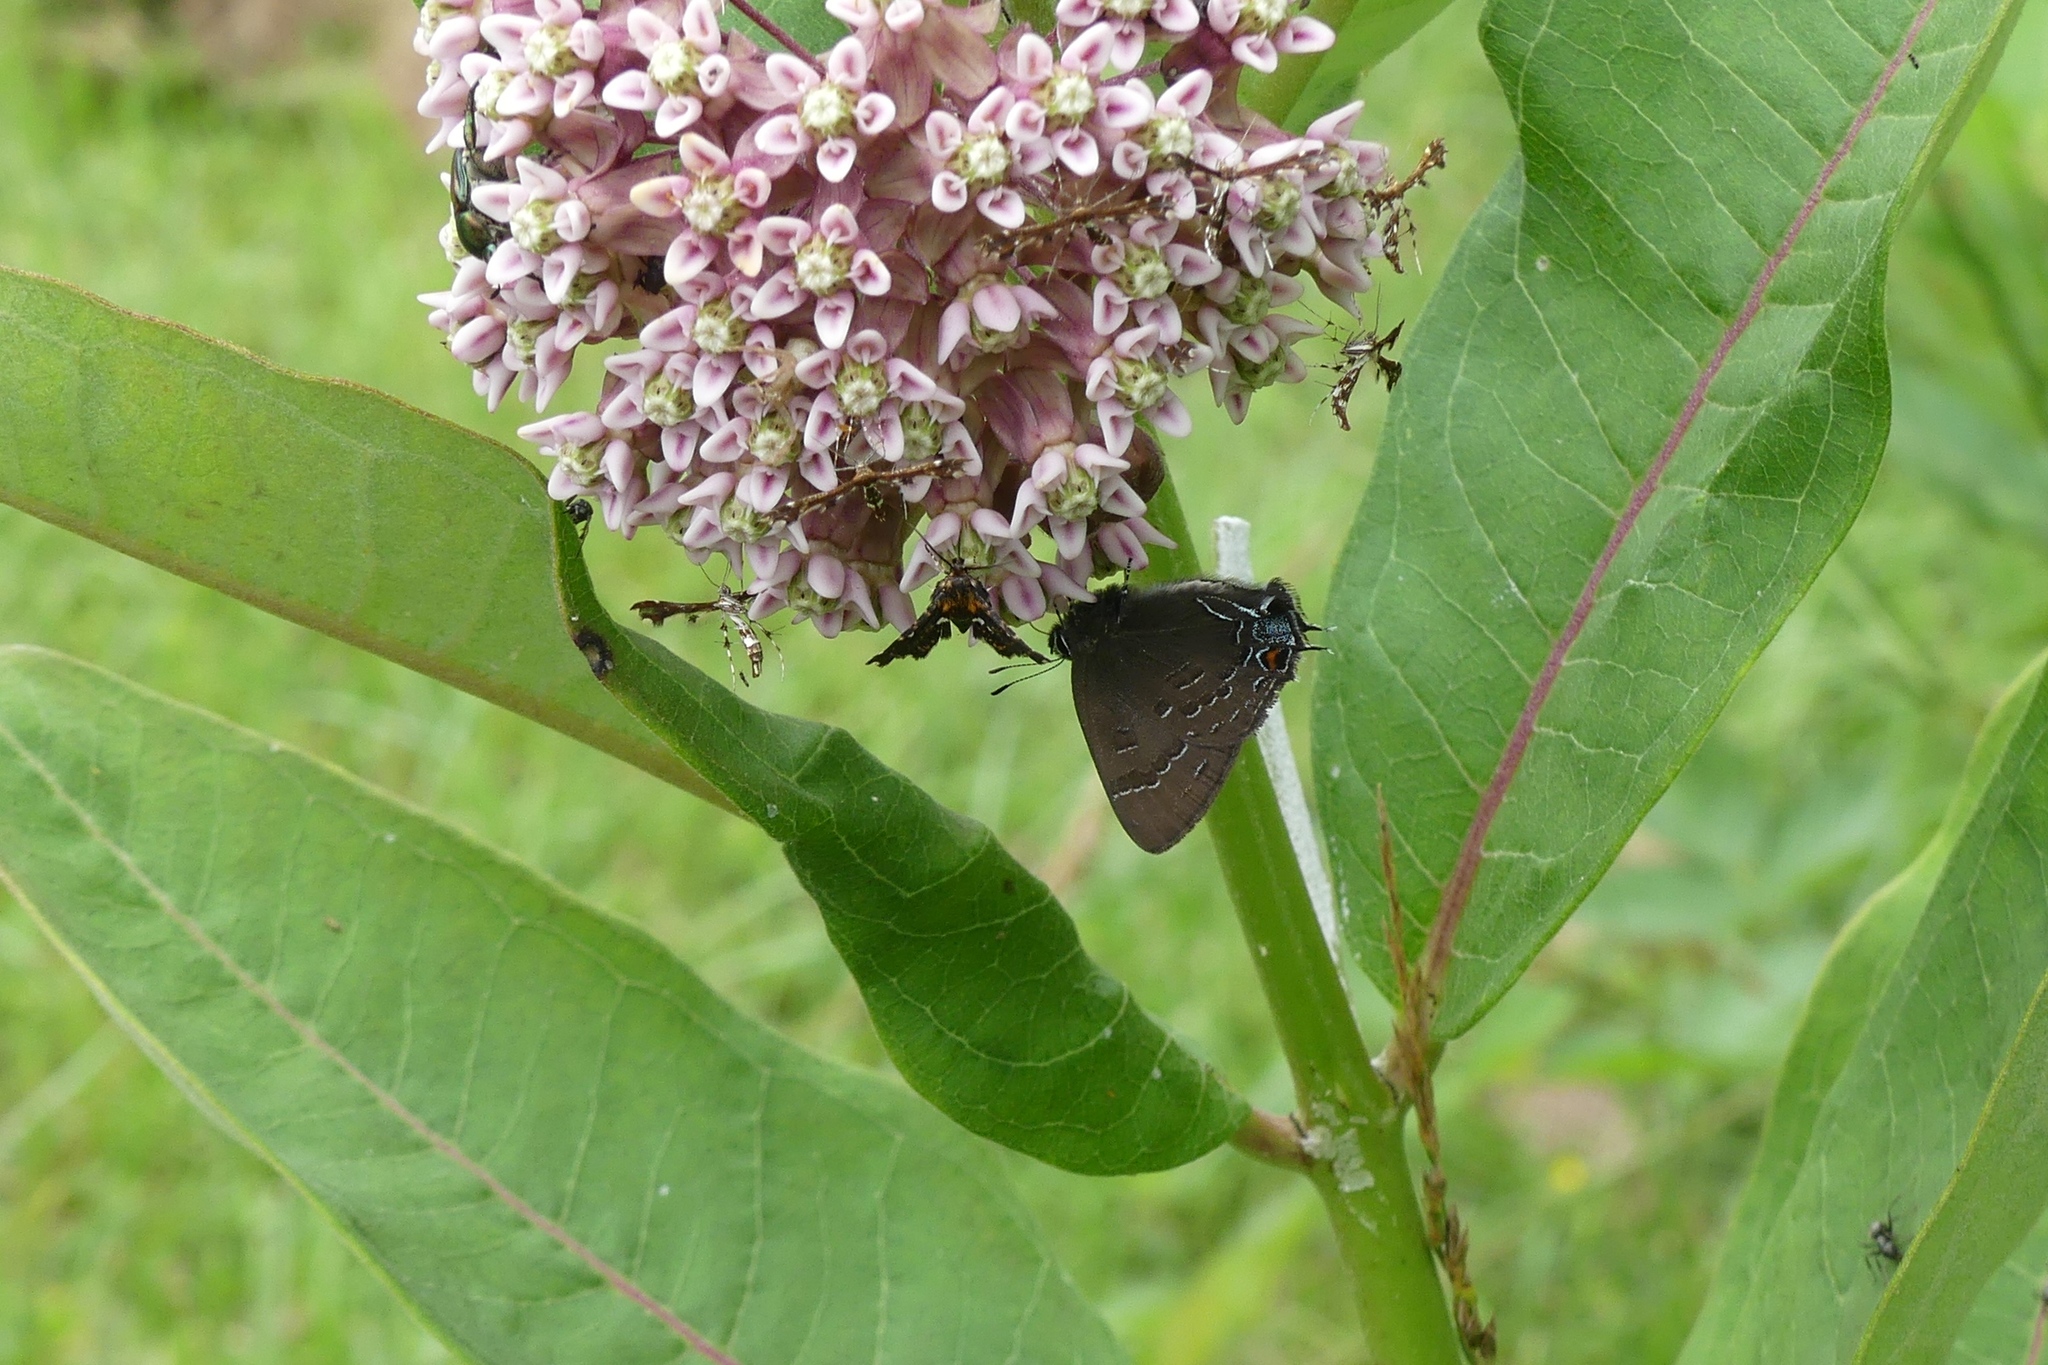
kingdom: Animalia
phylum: Arthropoda
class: Insecta
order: Lepidoptera
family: Lycaenidae
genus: Satyrium
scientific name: Satyrium calanus
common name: Banded hairstreak
